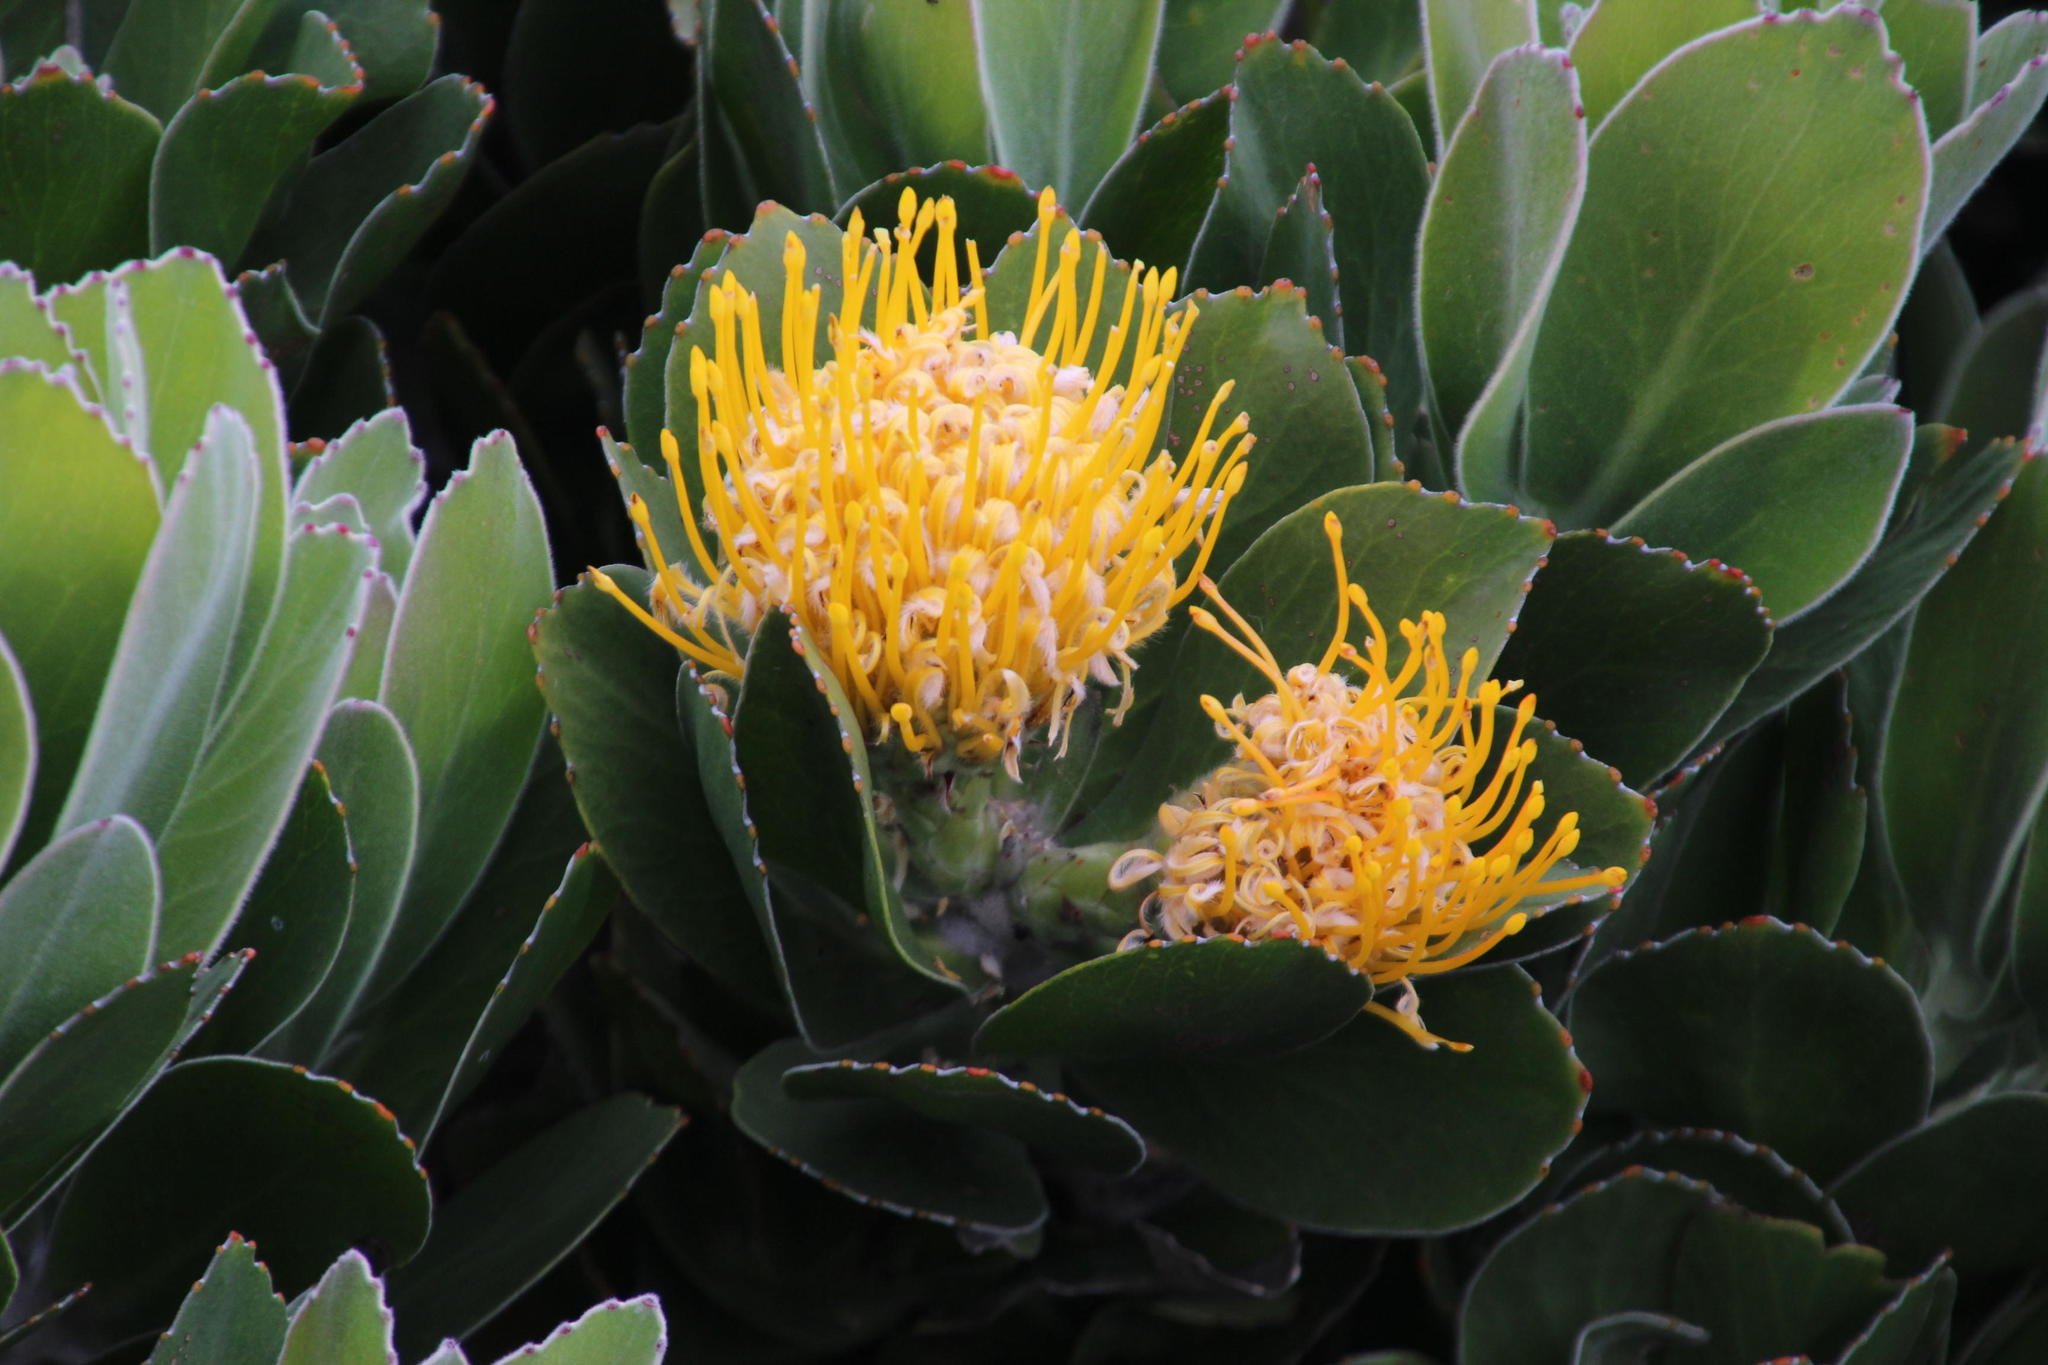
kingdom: Plantae
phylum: Tracheophyta
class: Magnoliopsida
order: Proteales
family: Proteaceae
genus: Leucospermum
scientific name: Leucospermum conocarpodendron
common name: Tree pincushion
